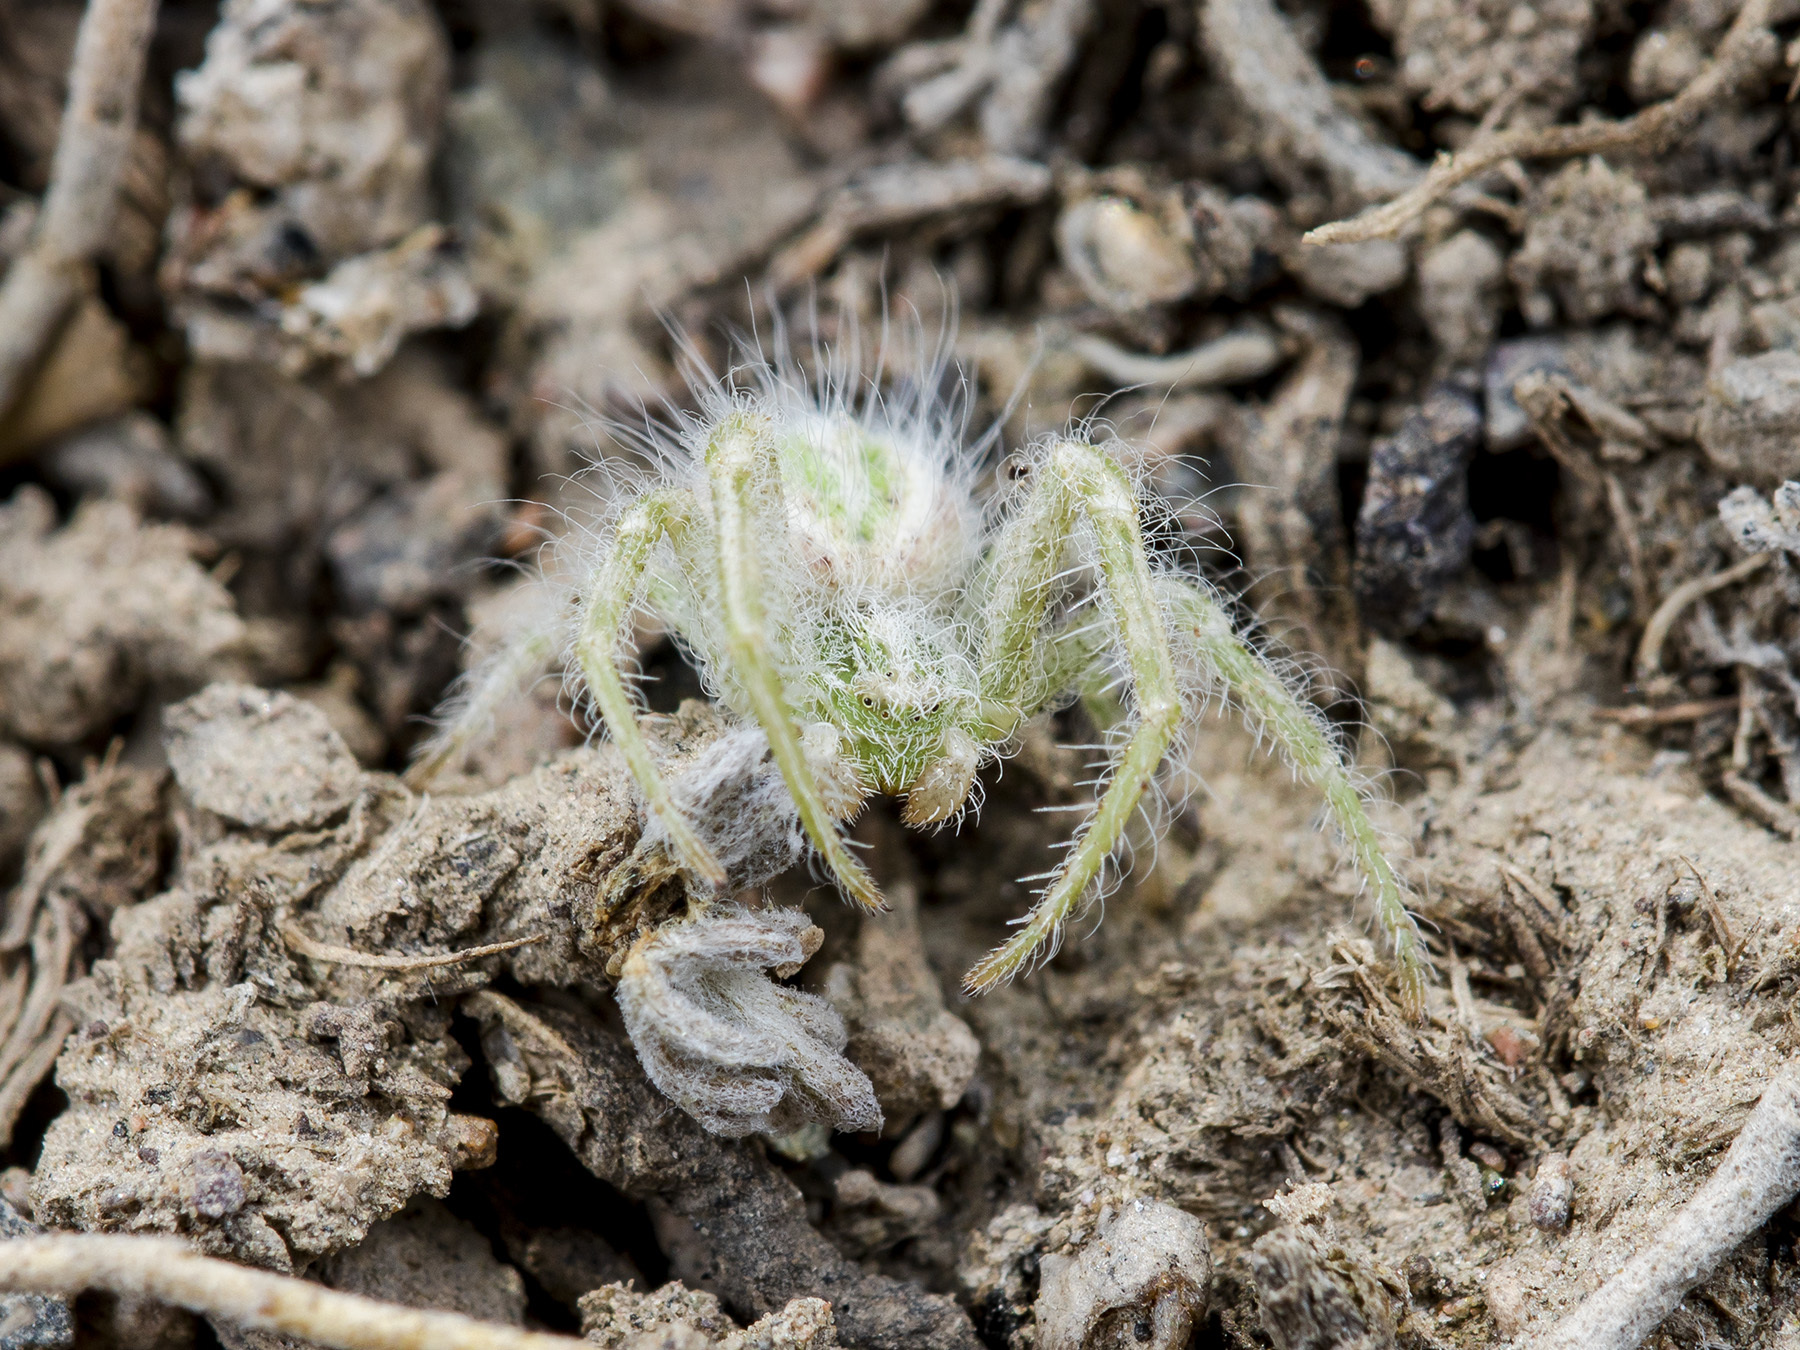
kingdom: Animalia
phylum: Arthropoda
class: Arachnida
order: Araneae
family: Thomisidae
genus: Heriaeus
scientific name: Heriaeus horridus
